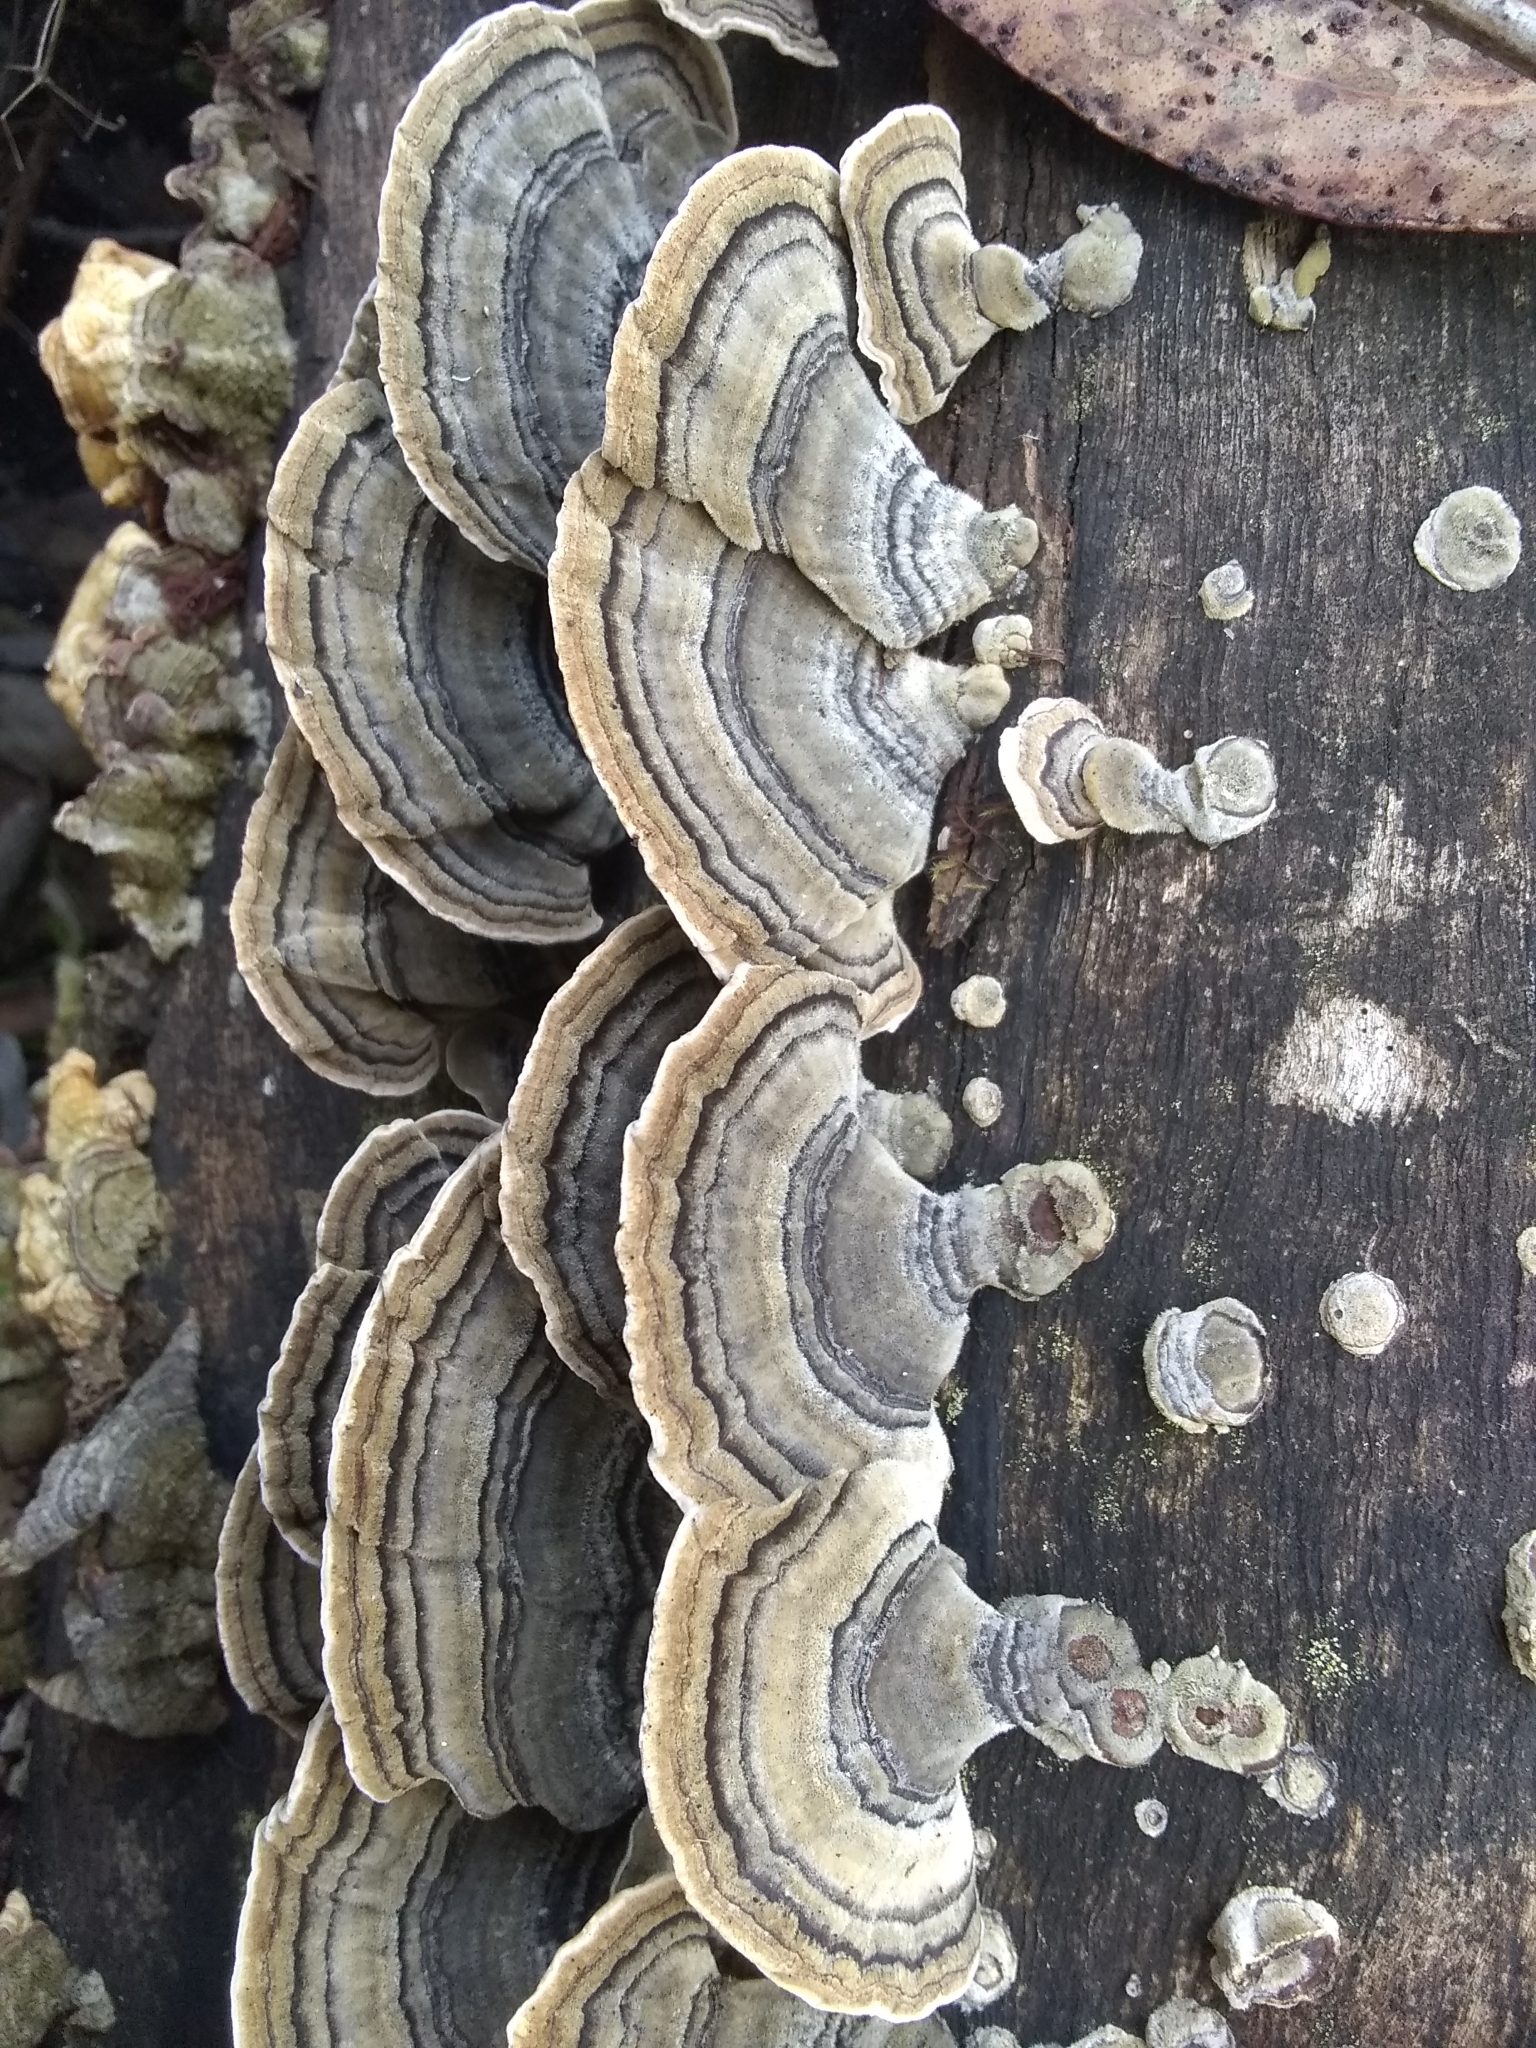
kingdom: Fungi
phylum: Basidiomycota
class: Agaricomycetes
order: Polyporales
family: Polyporaceae
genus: Trametes
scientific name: Trametes versicolor
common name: Turkeytail
